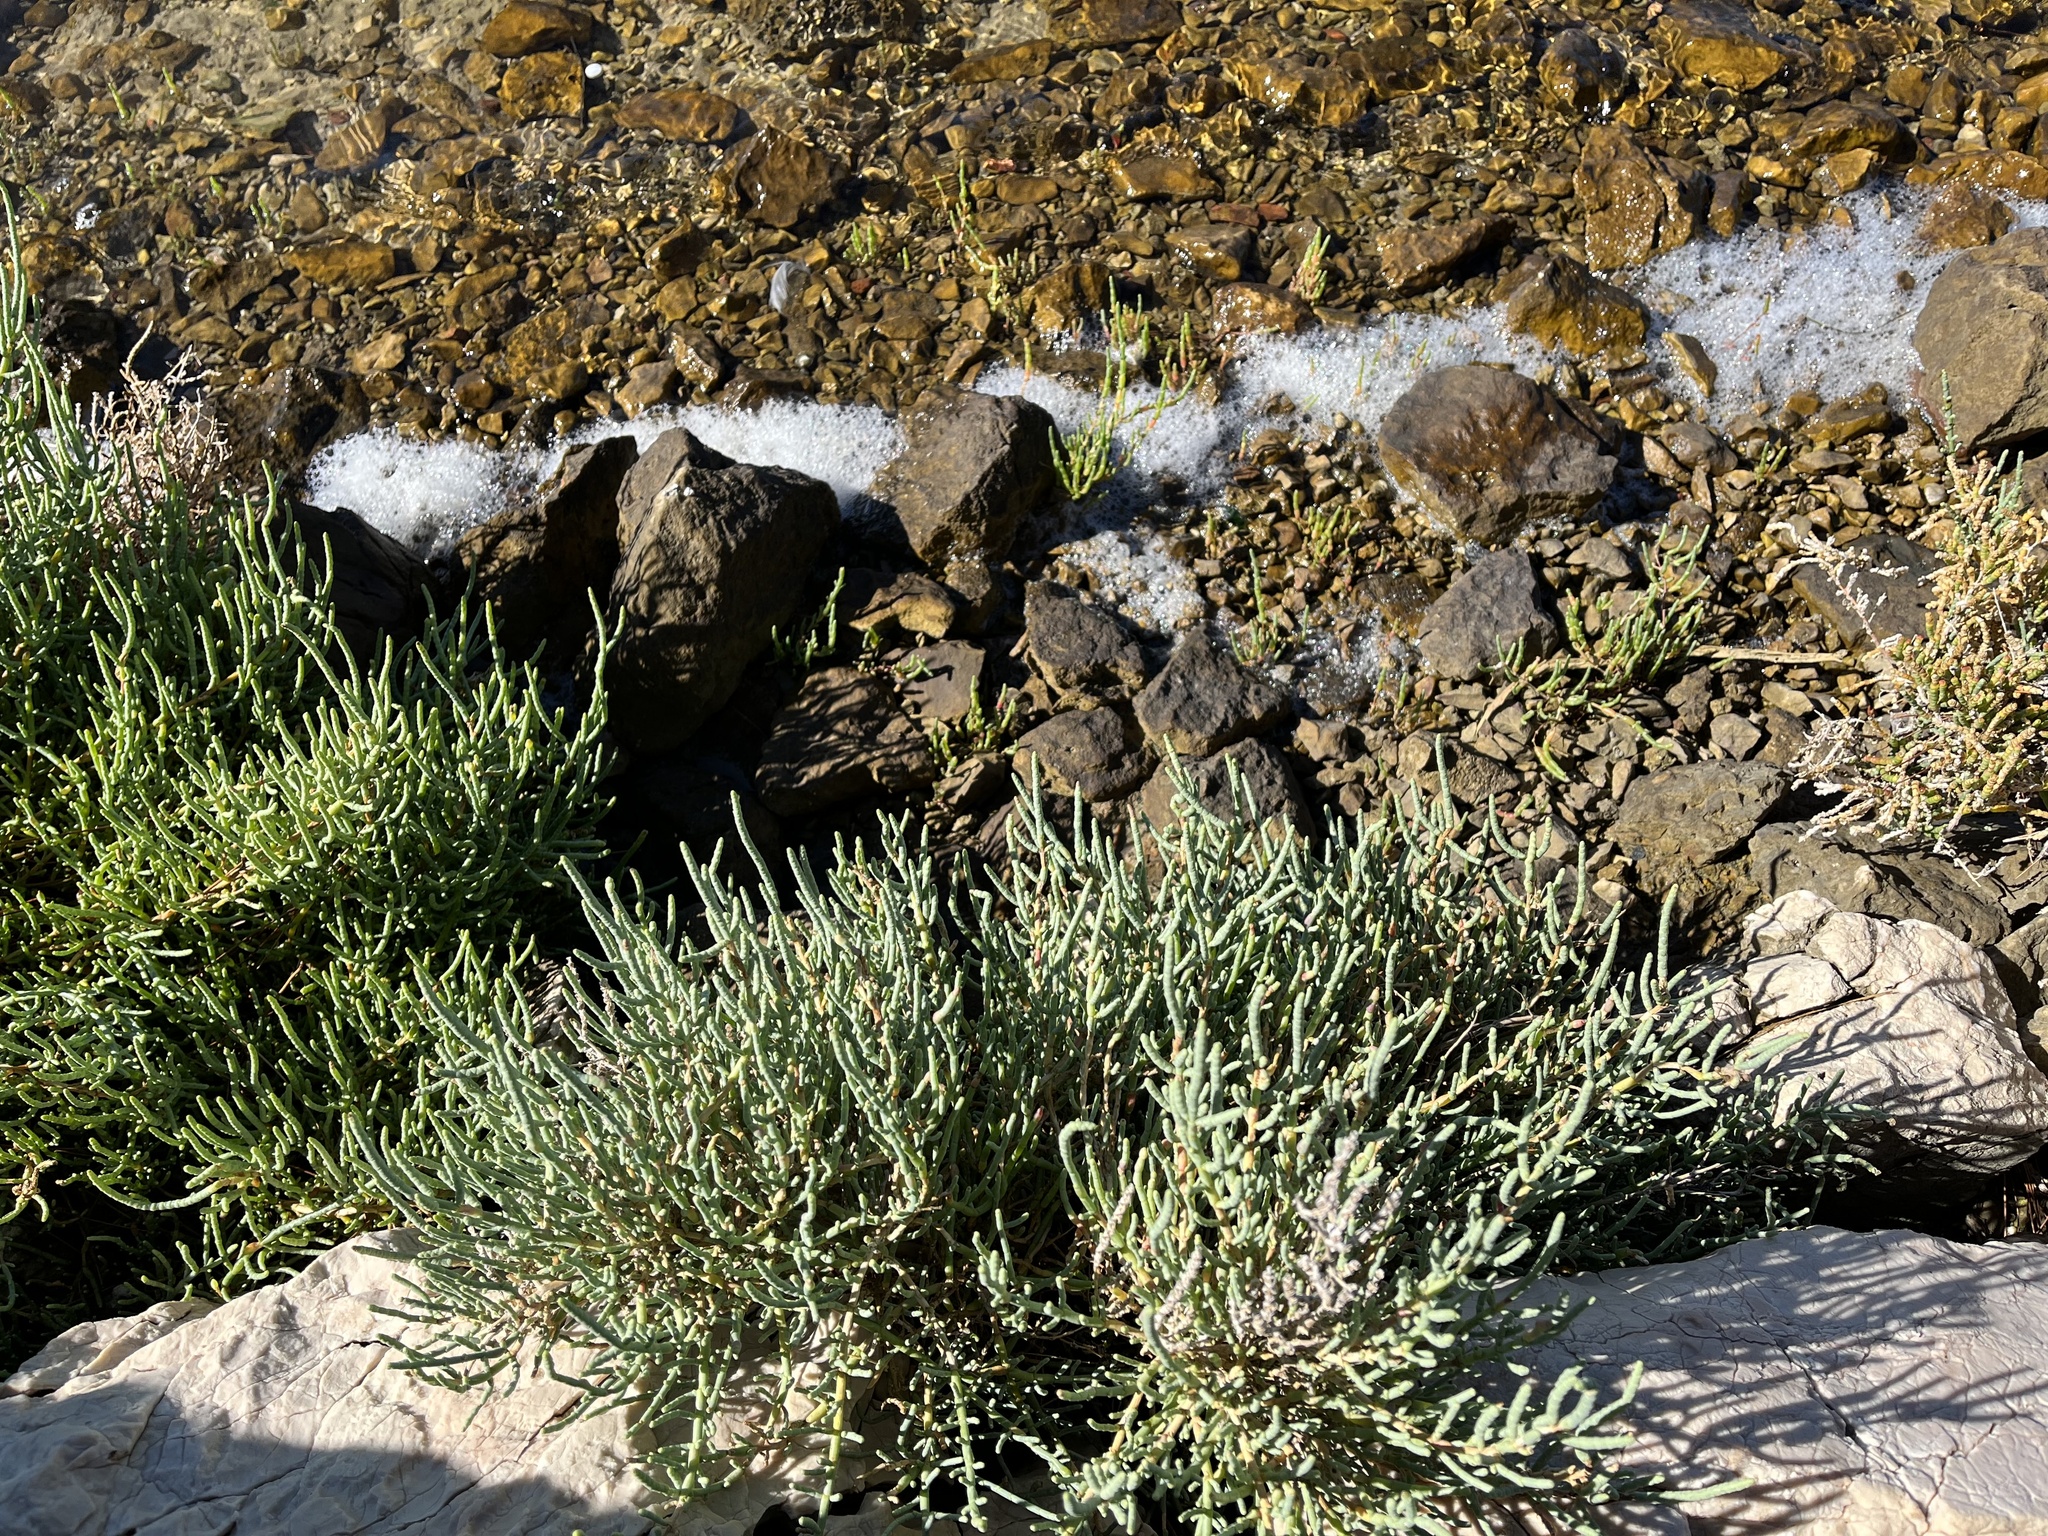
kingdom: Plantae
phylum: Tracheophyta
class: Magnoliopsida
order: Caryophyllales
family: Amaranthaceae
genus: Arthrocaulon
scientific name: Arthrocaulon macrostachyum
